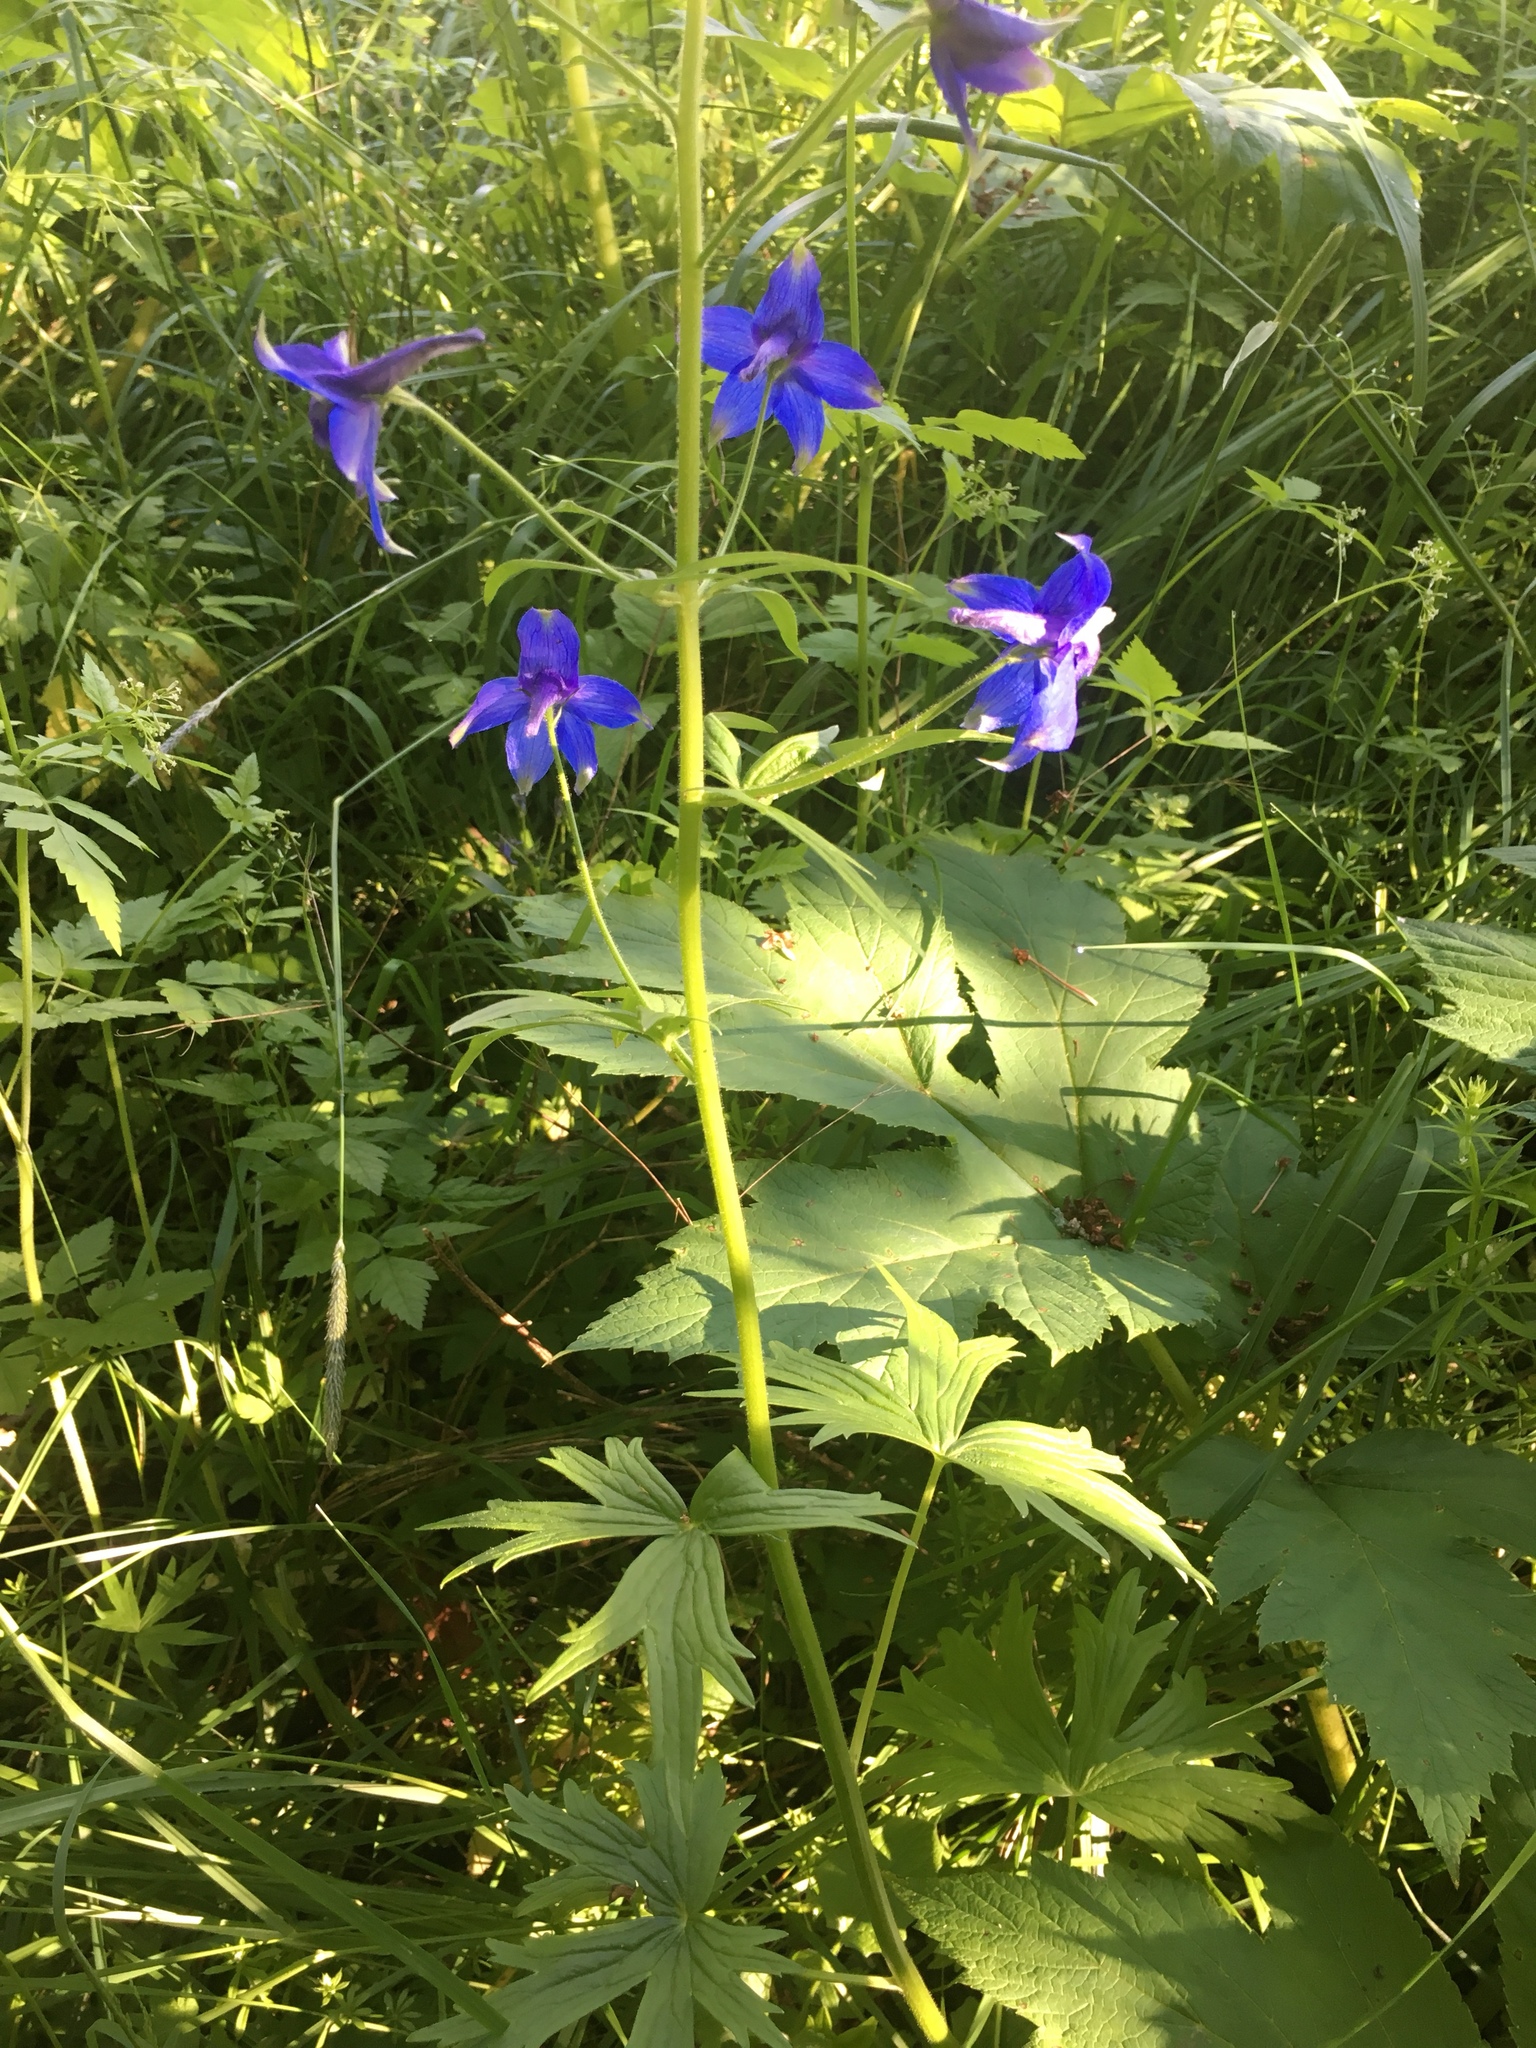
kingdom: Plantae
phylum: Tracheophyta
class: Magnoliopsida
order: Ranunculales
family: Ranunculaceae
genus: Delphinium
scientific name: Delphinium trolliifolium
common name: Cow-poison
